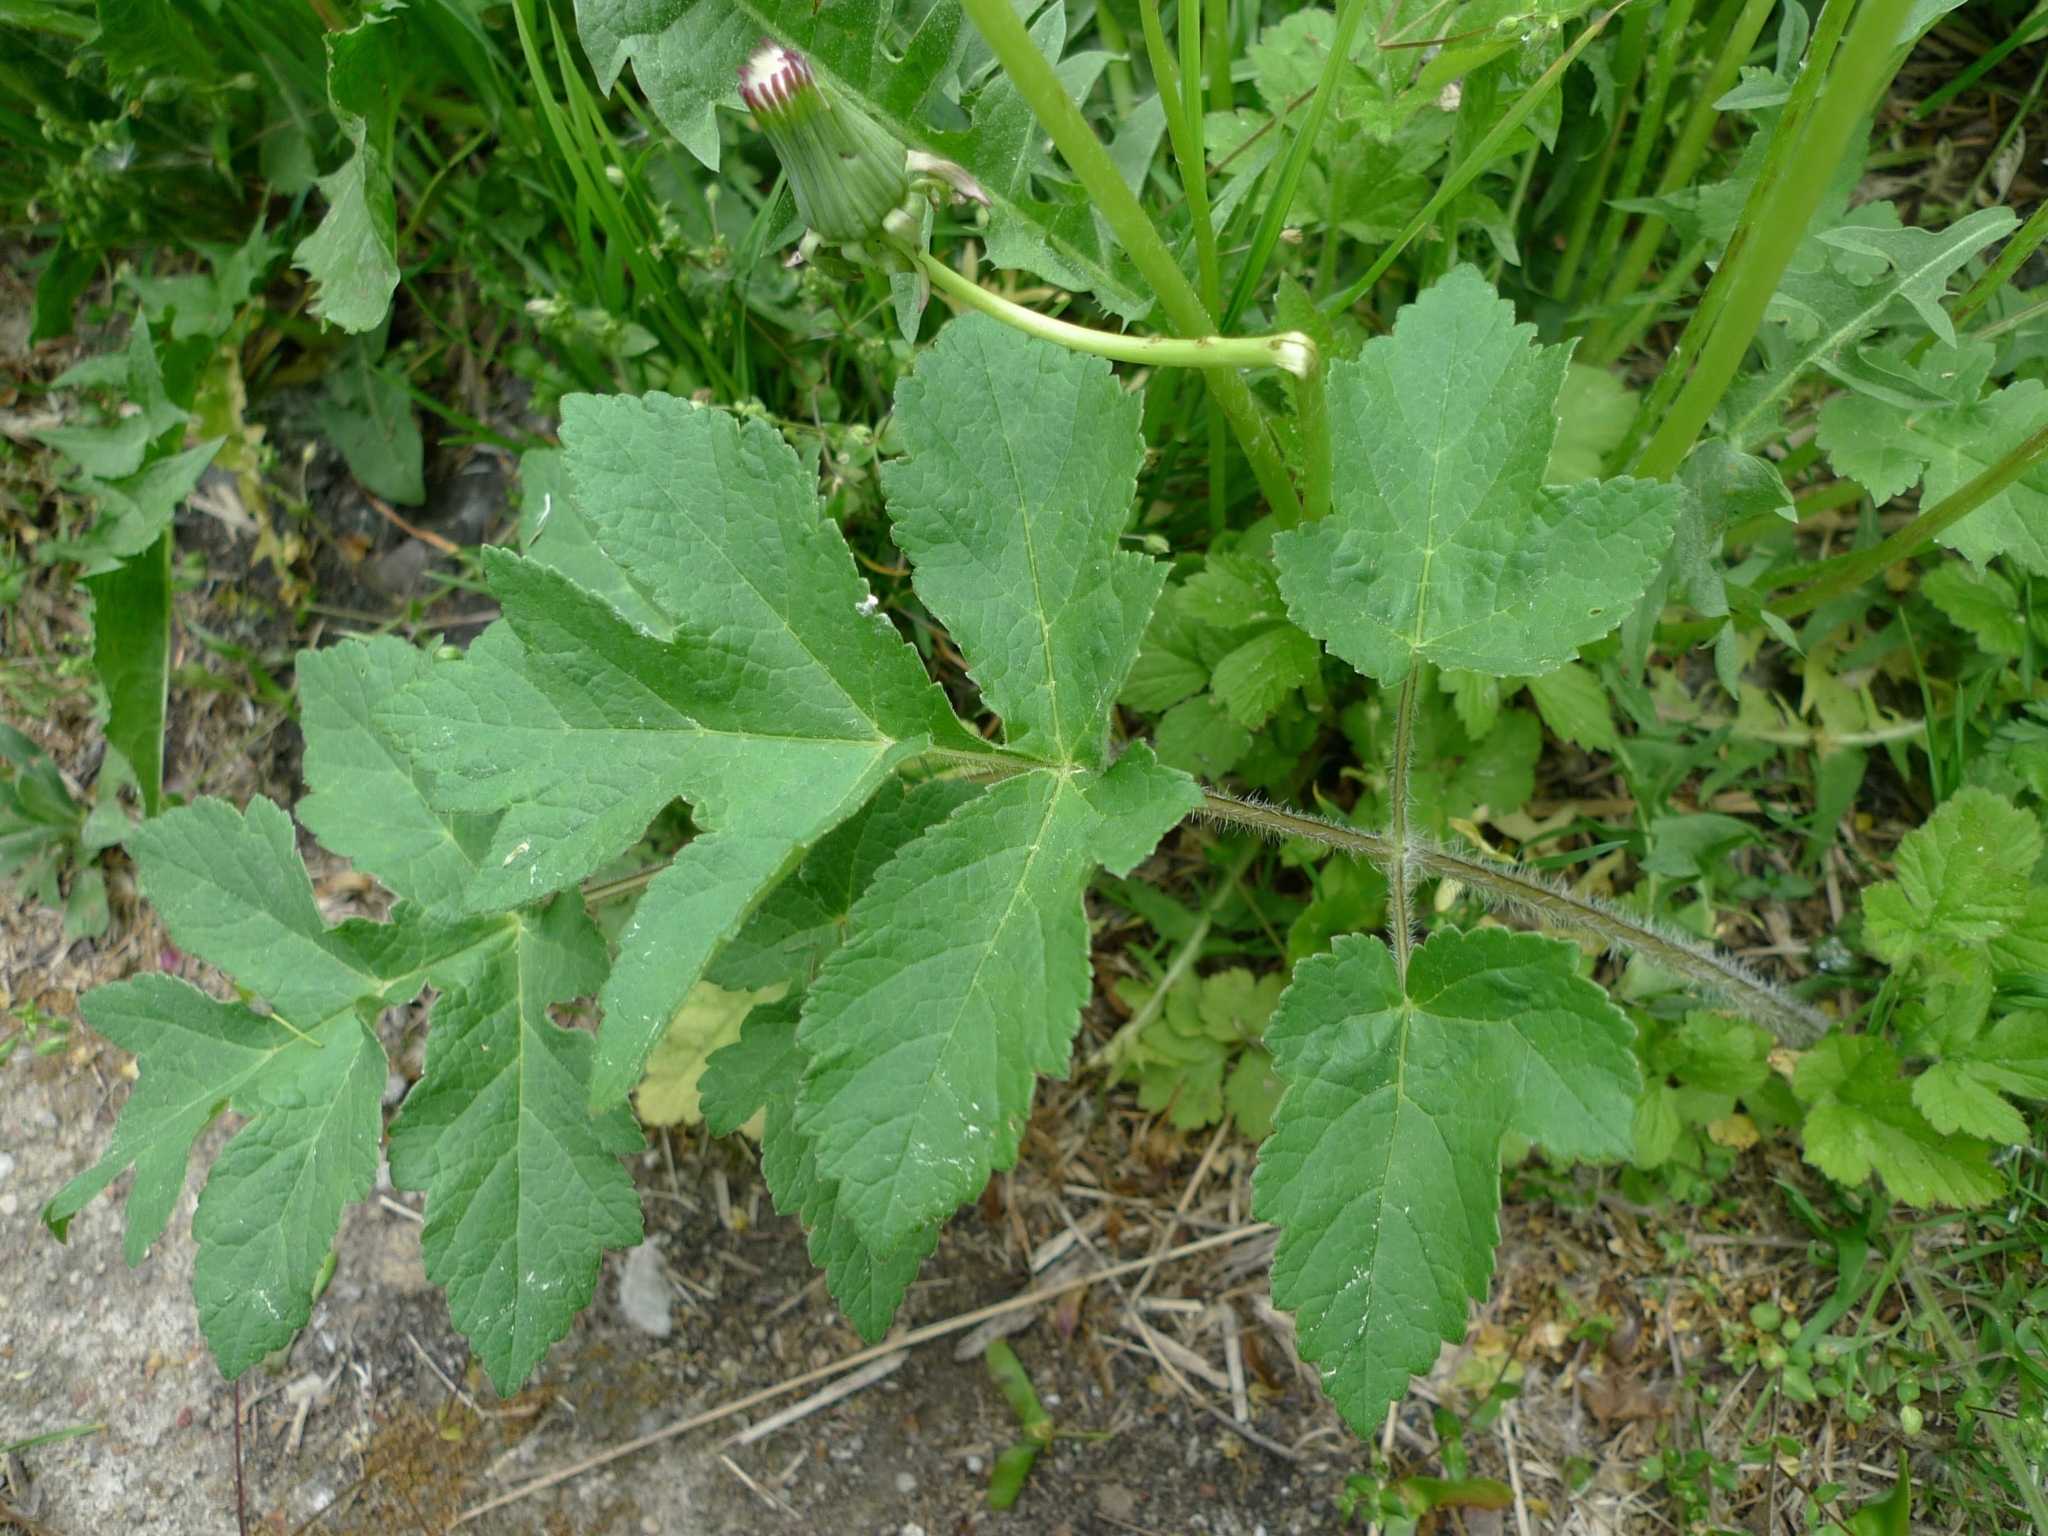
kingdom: Plantae
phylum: Tracheophyta
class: Magnoliopsida
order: Apiales
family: Apiaceae
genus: Heracleum
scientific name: Heracleum sphondylium
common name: Hogweed
